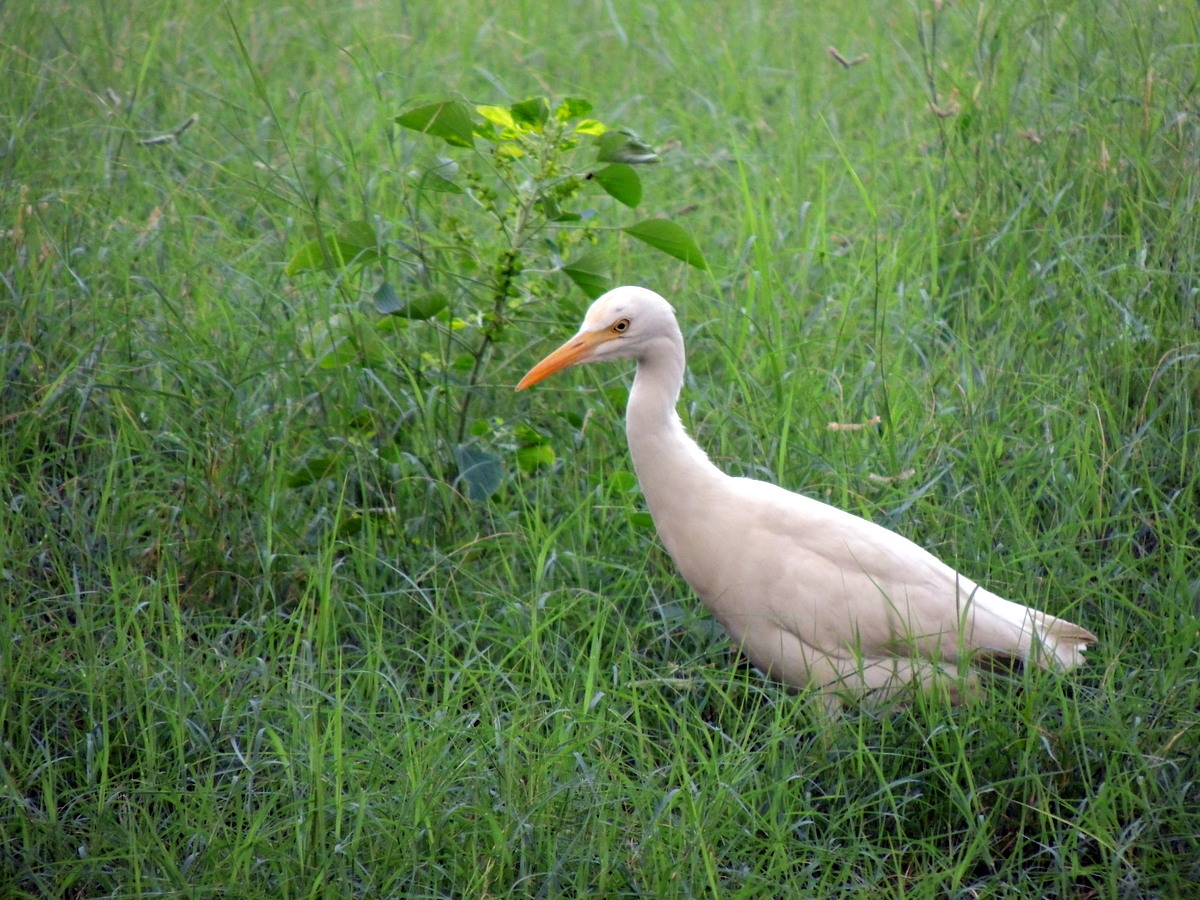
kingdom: Animalia
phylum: Chordata
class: Aves
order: Pelecaniformes
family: Ardeidae
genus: Bubulcus
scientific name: Bubulcus coromandus
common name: Eastern cattle egret
